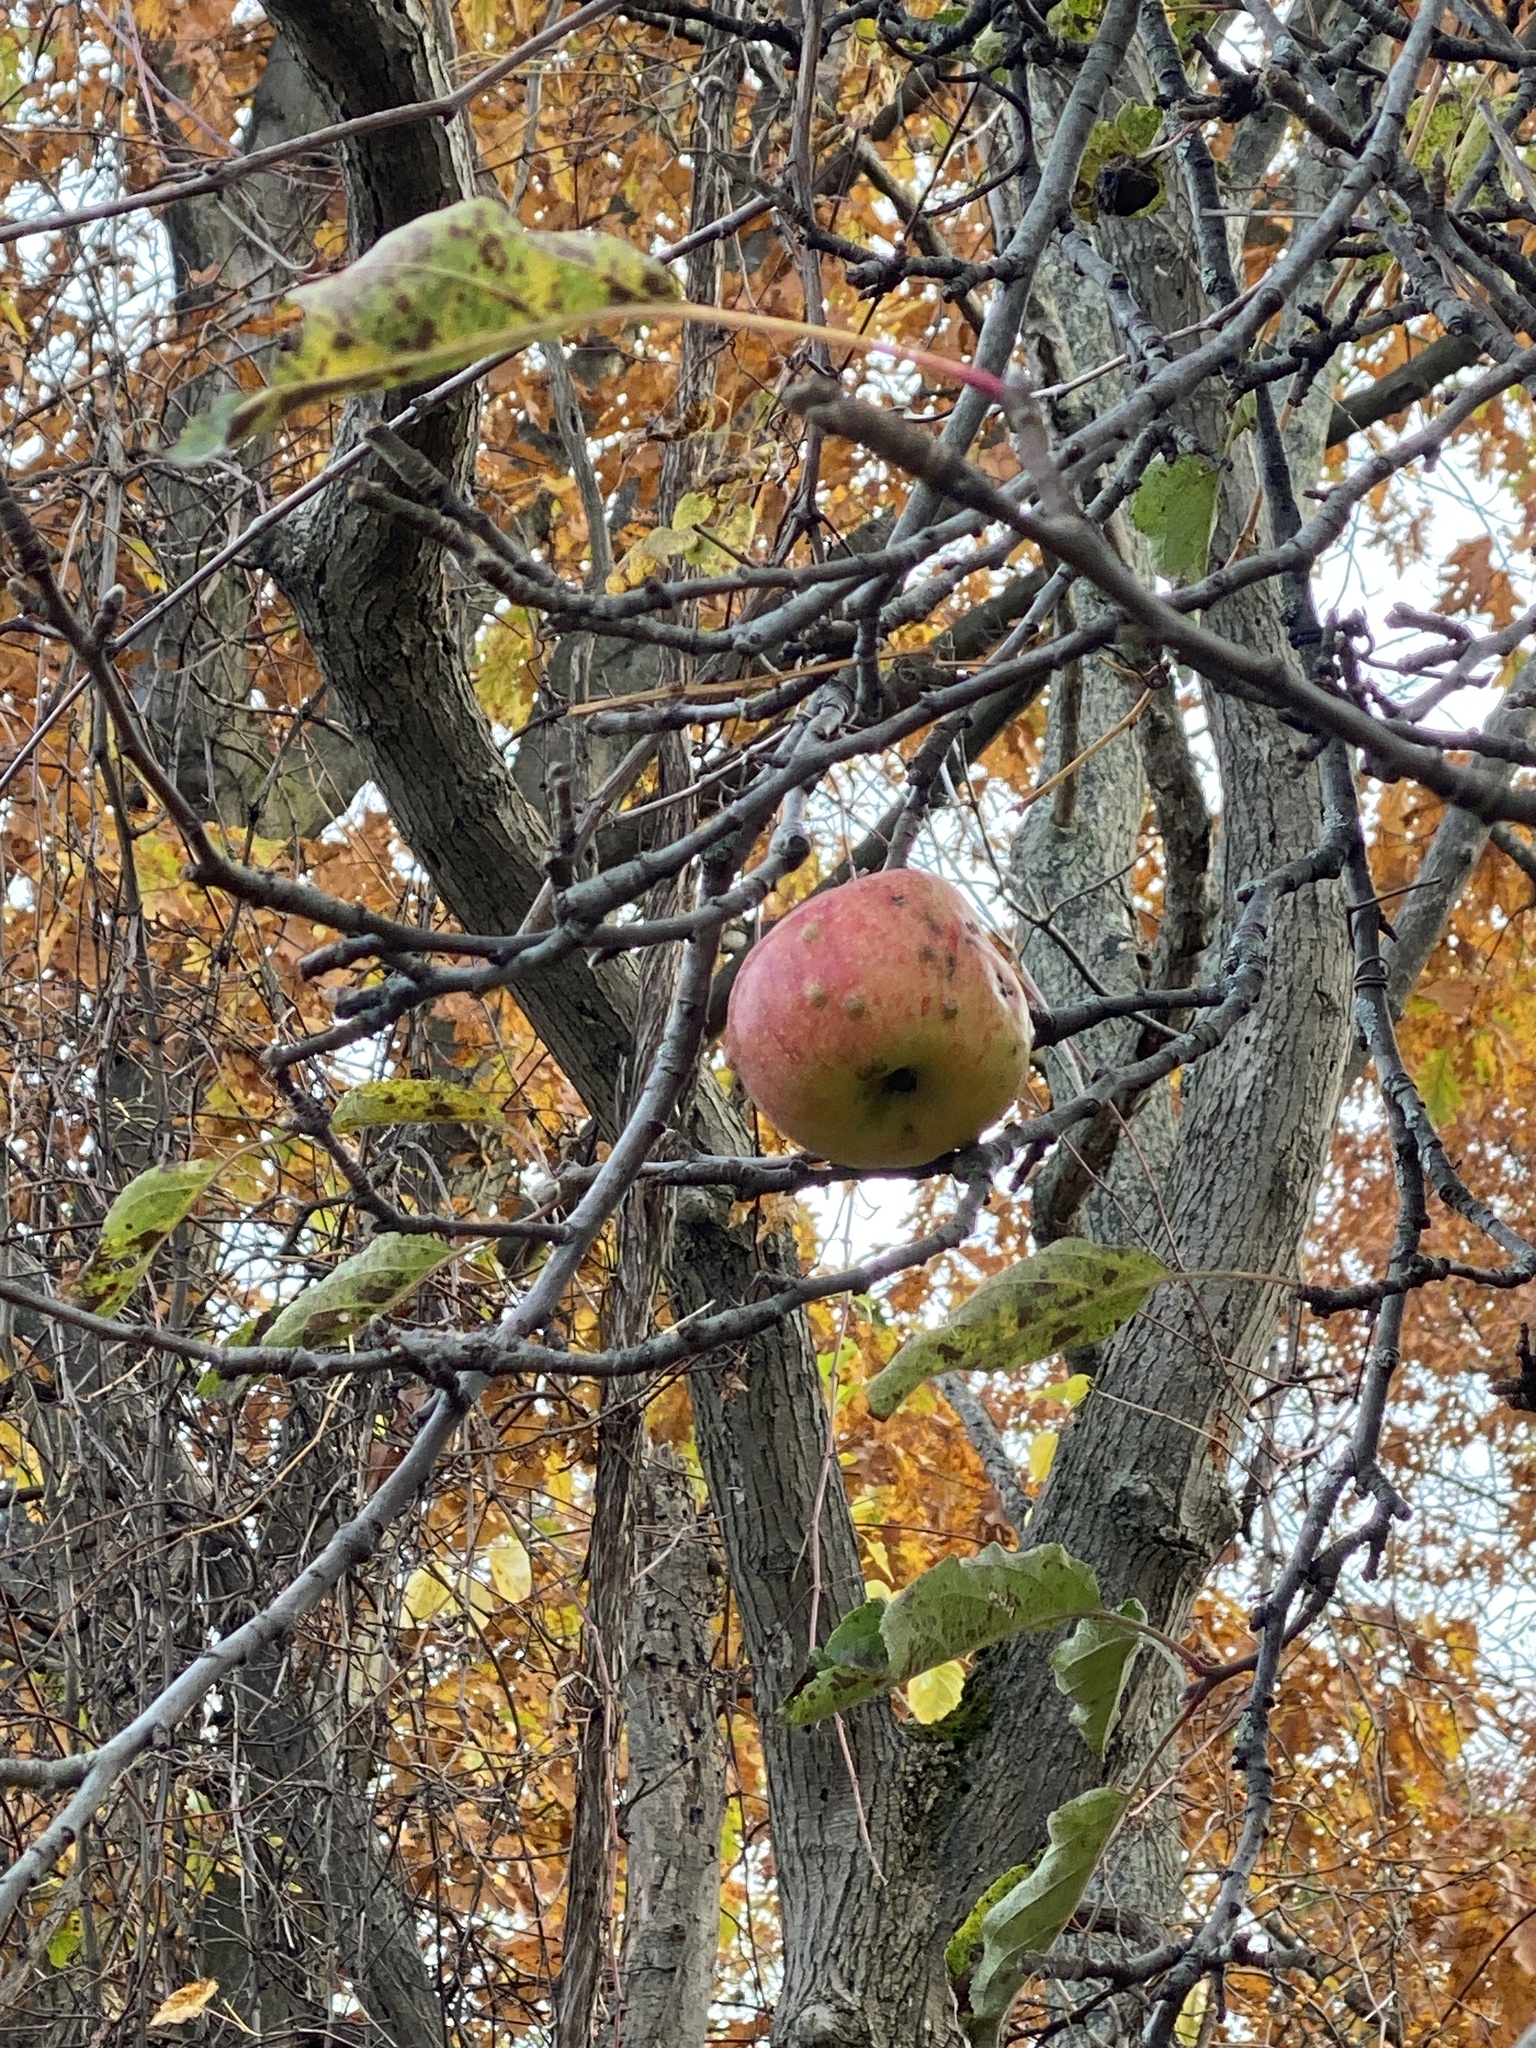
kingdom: Plantae
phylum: Tracheophyta
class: Magnoliopsida
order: Rosales
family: Rosaceae
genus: Malus
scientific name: Malus domestica
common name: Apple
